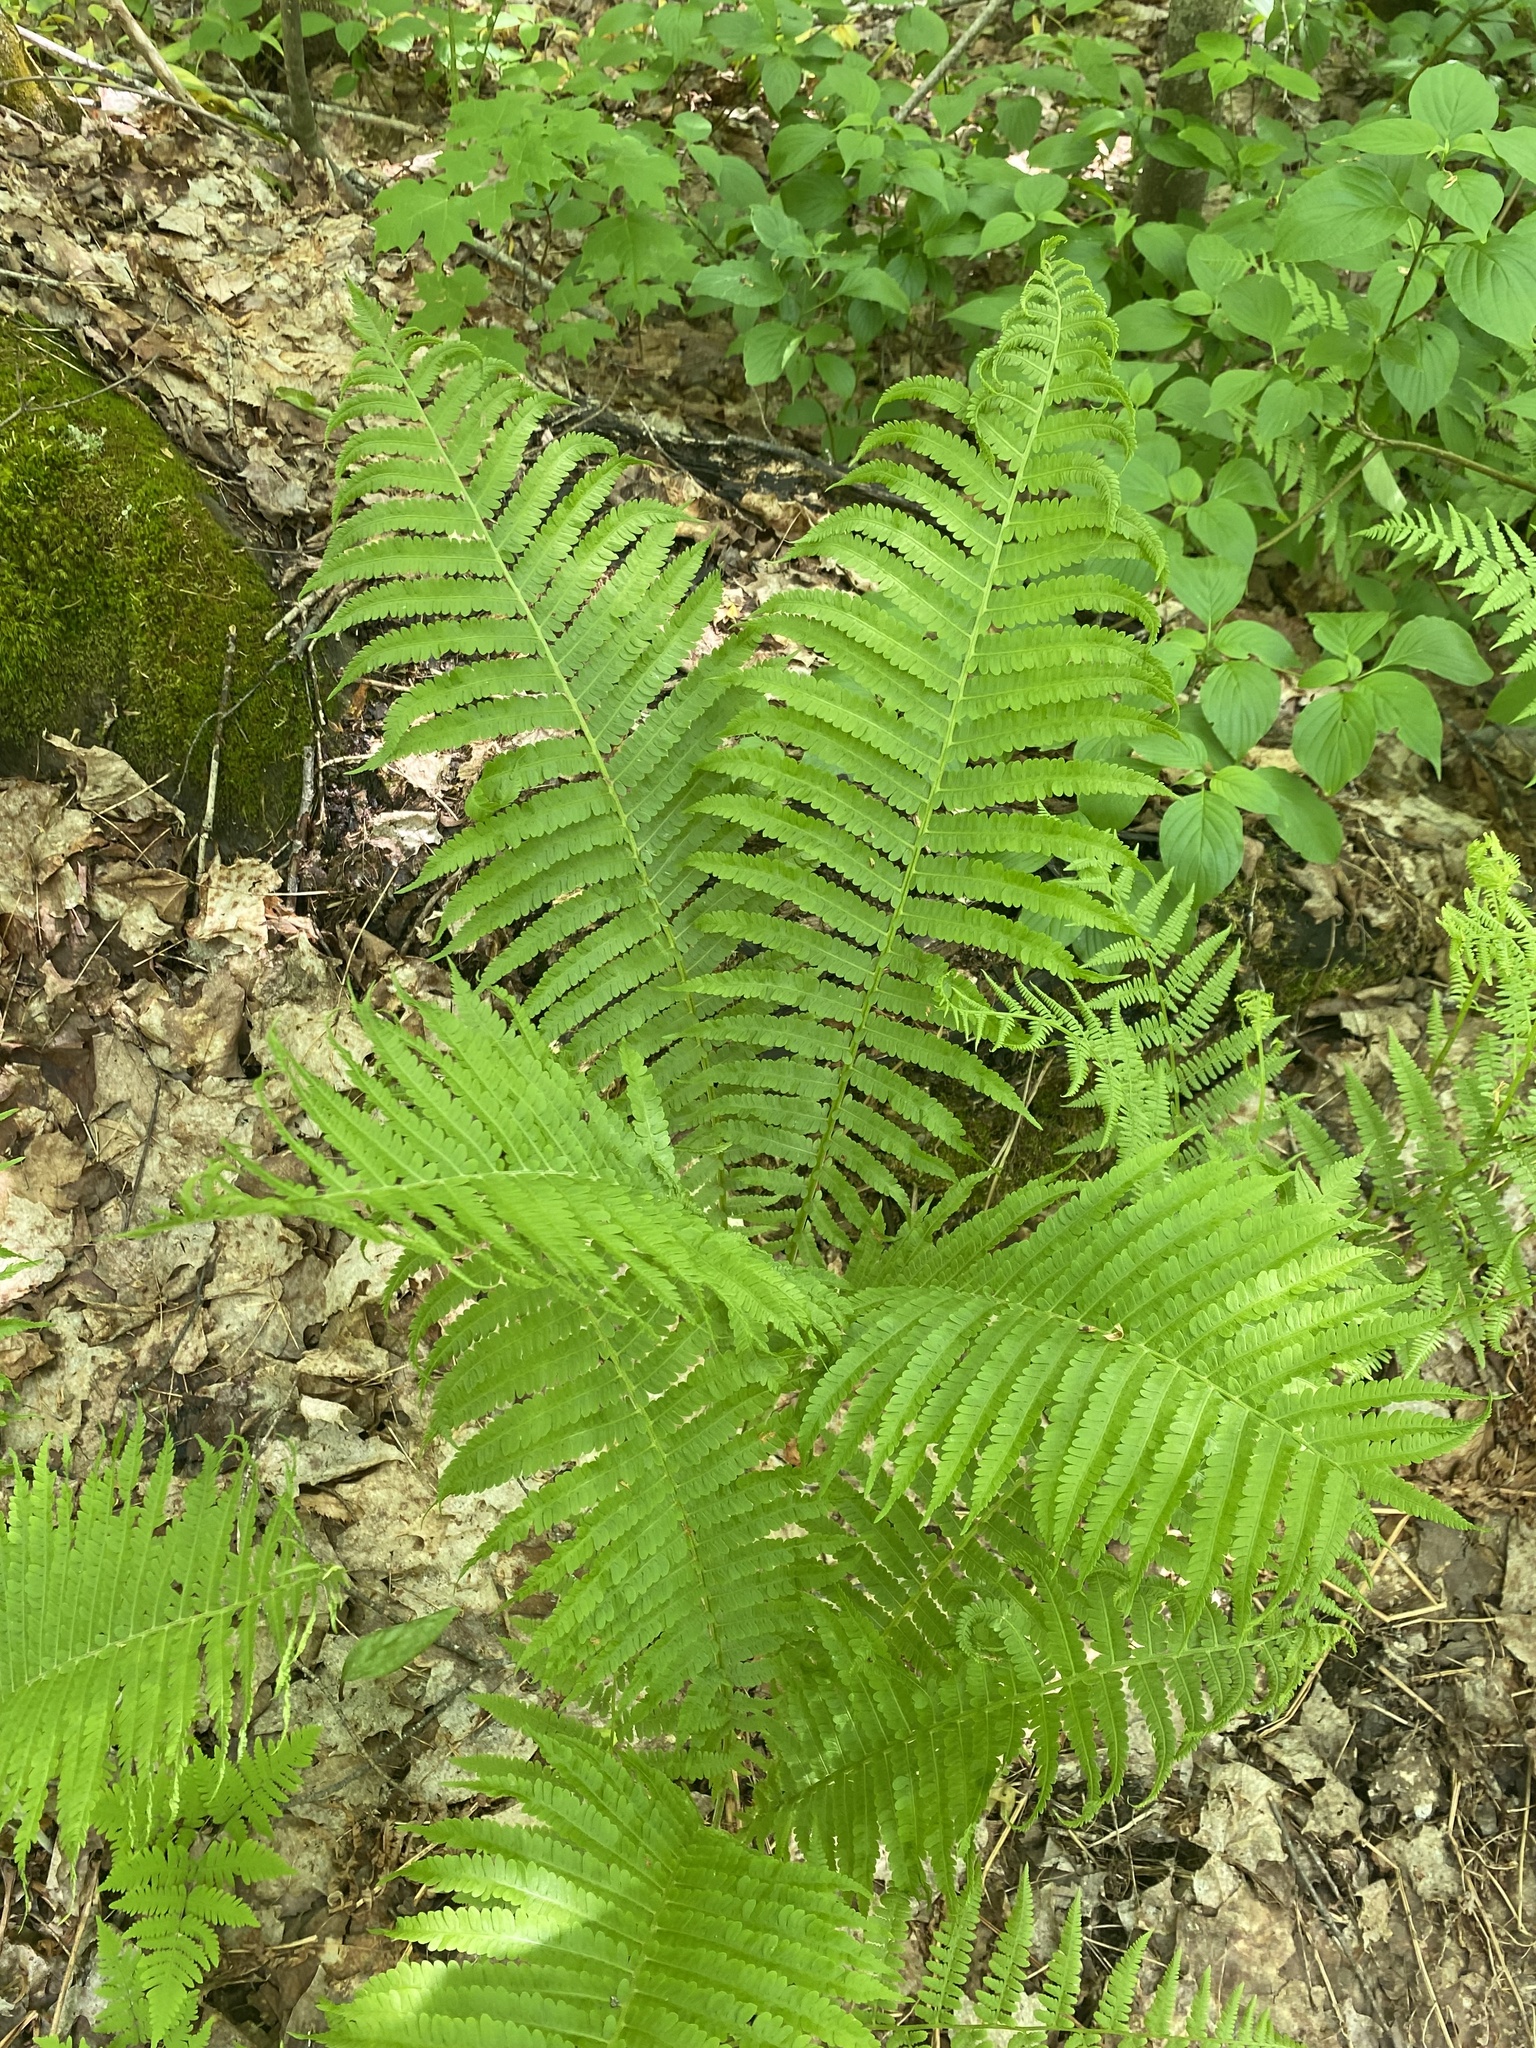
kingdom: Plantae
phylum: Tracheophyta
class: Polypodiopsida
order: Polypodiales
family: Onocleaceae
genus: Matteuccia
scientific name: Matteuccia struthiopteris
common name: Ostrich fern
